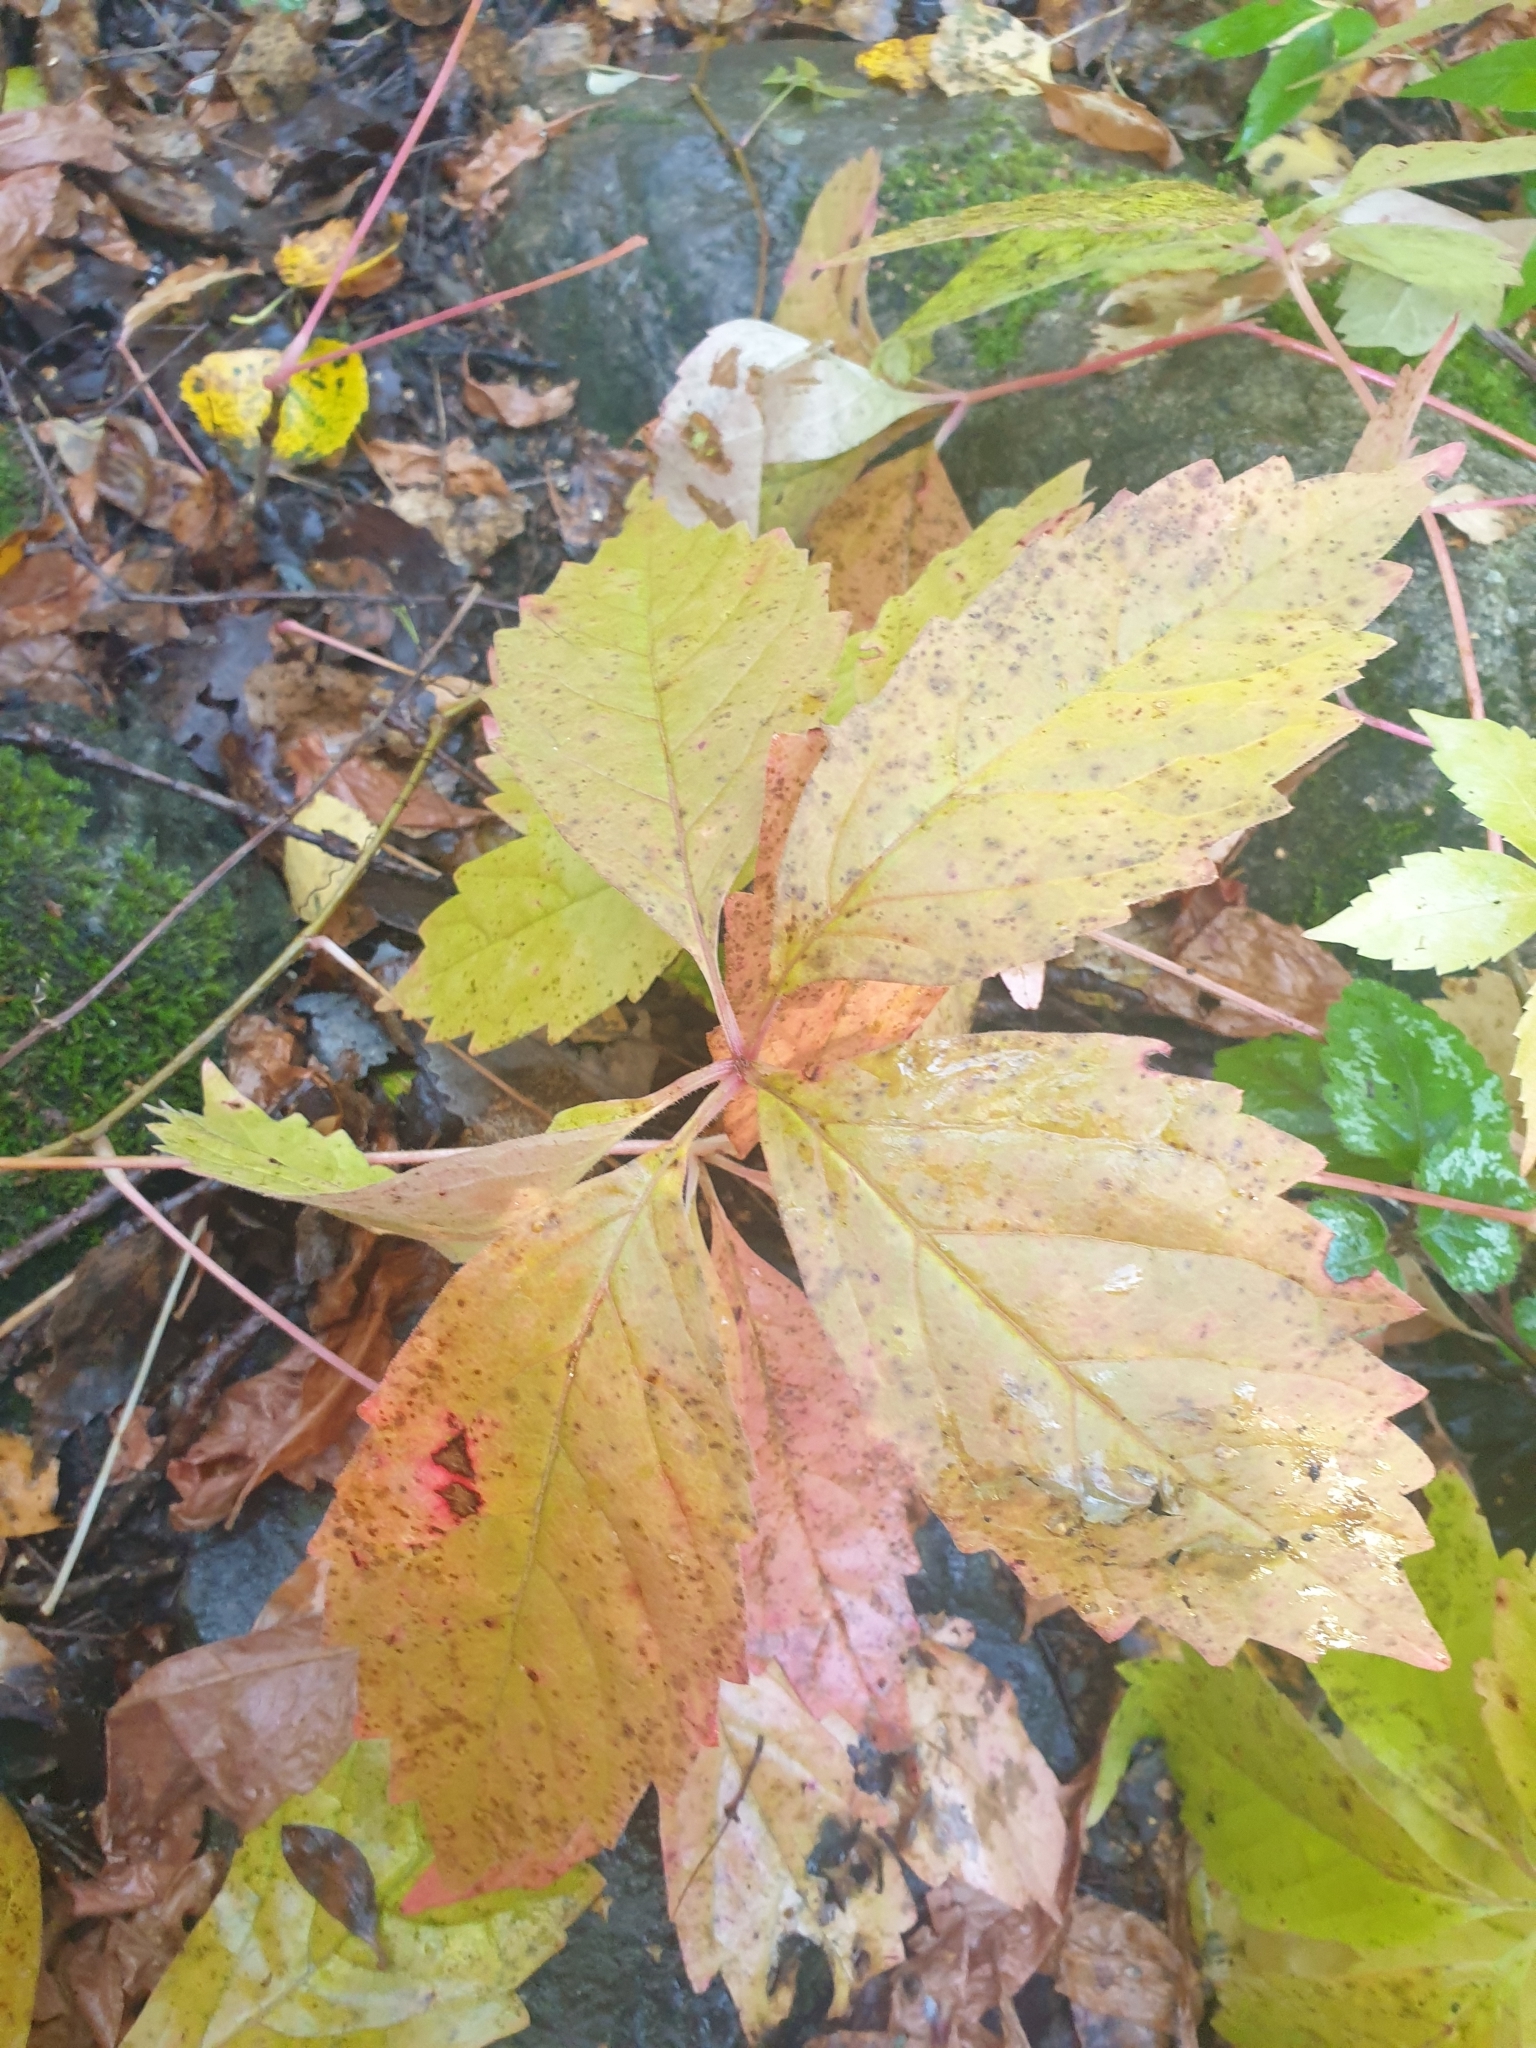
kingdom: Plantae
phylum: Tracheophyta
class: Magnoliopsida
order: Vitales
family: Vitaceae
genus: Parthenocissus
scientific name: Parthenocissus quinquefolia
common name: Virginia-creeper
